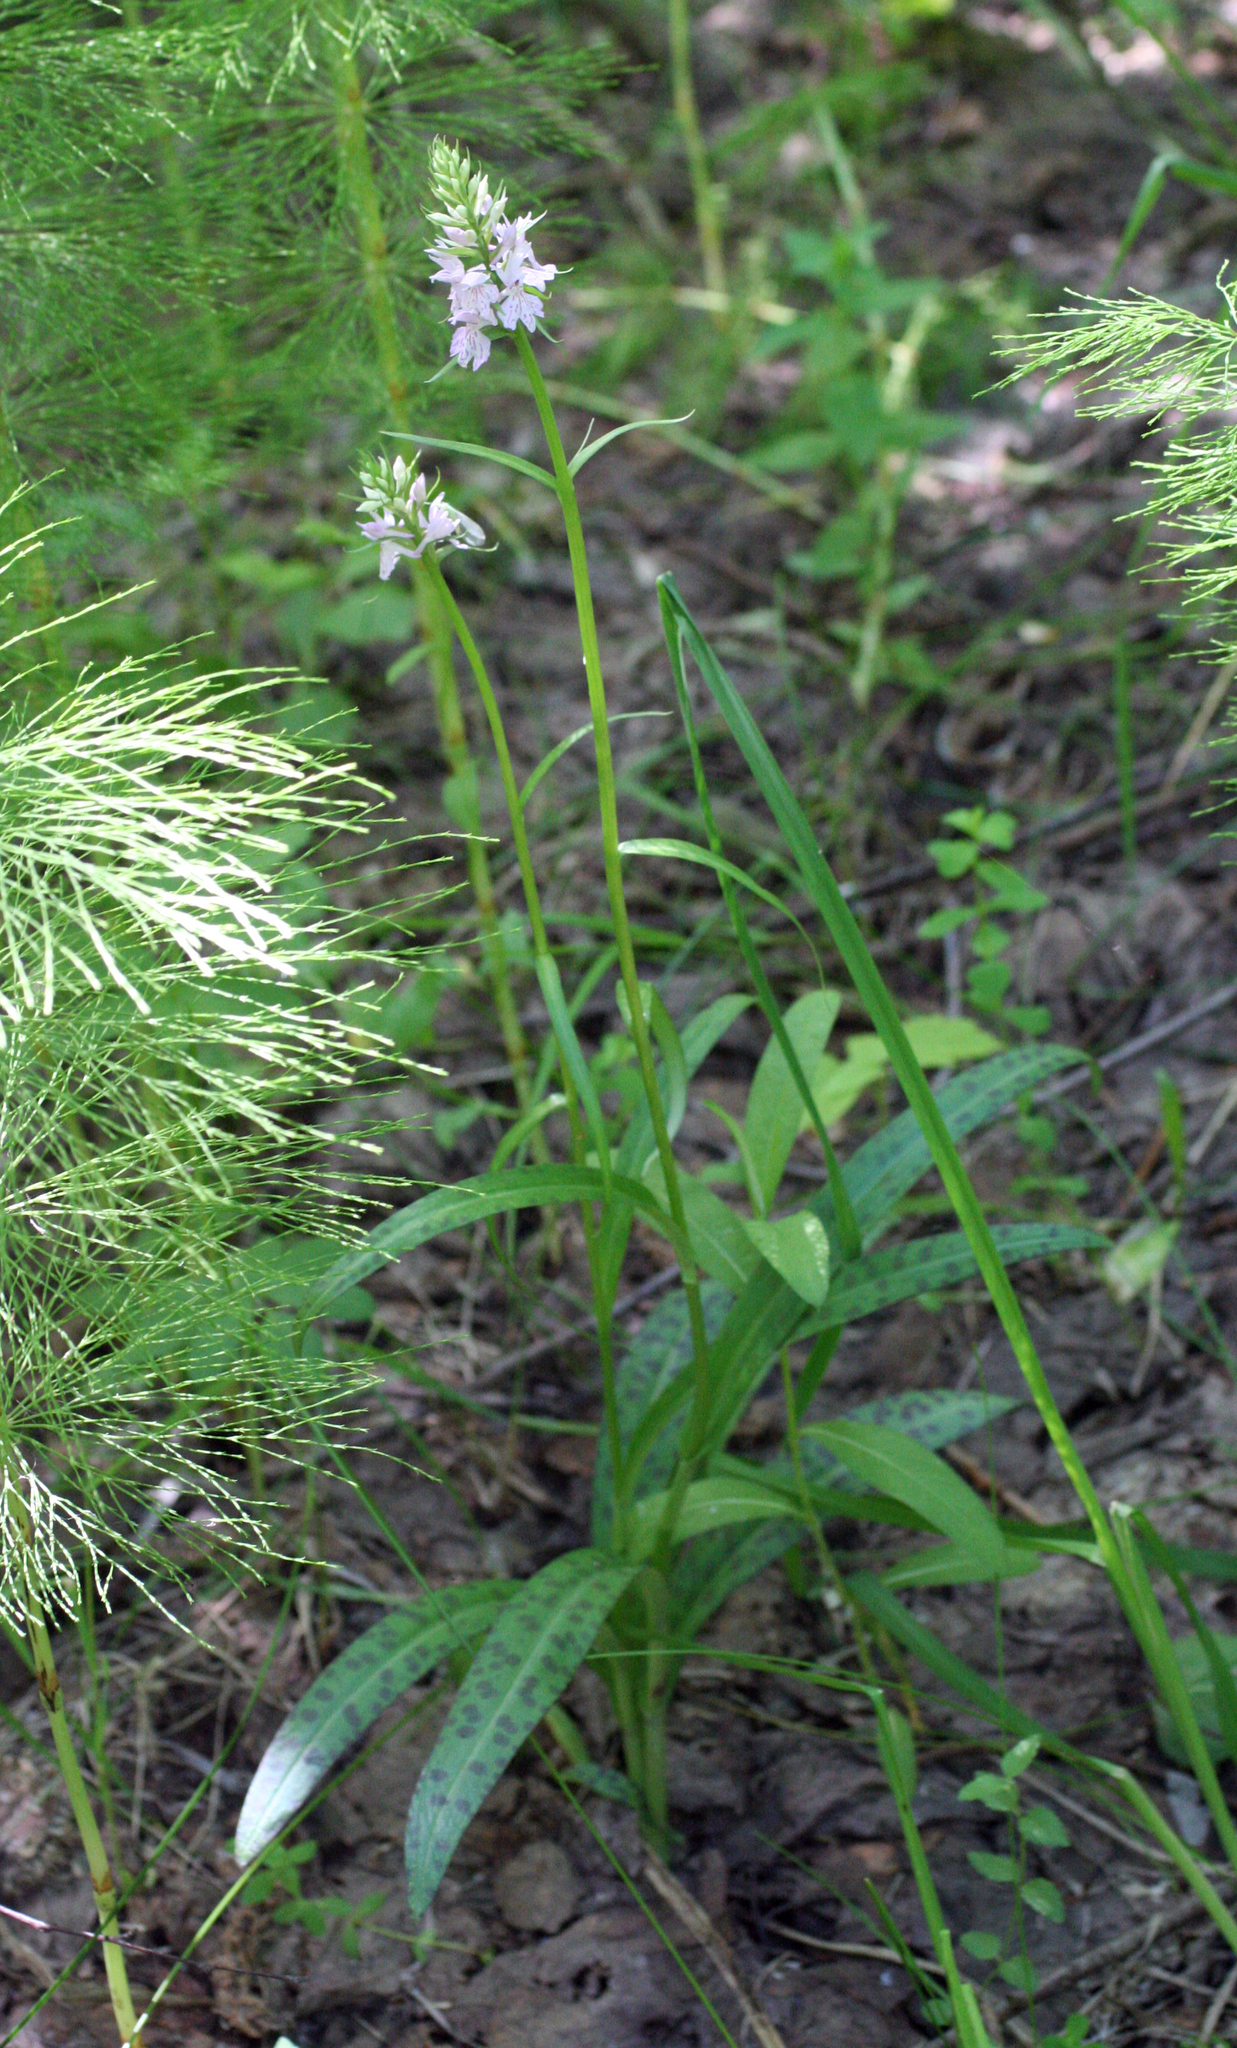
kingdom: Plantae
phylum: Tracheophyta
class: Liliopsida
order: Asparagales
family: Orchidaceae
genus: Dactylorhiza
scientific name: Dactylorhiza maculata
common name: Heath spotted-orchid
